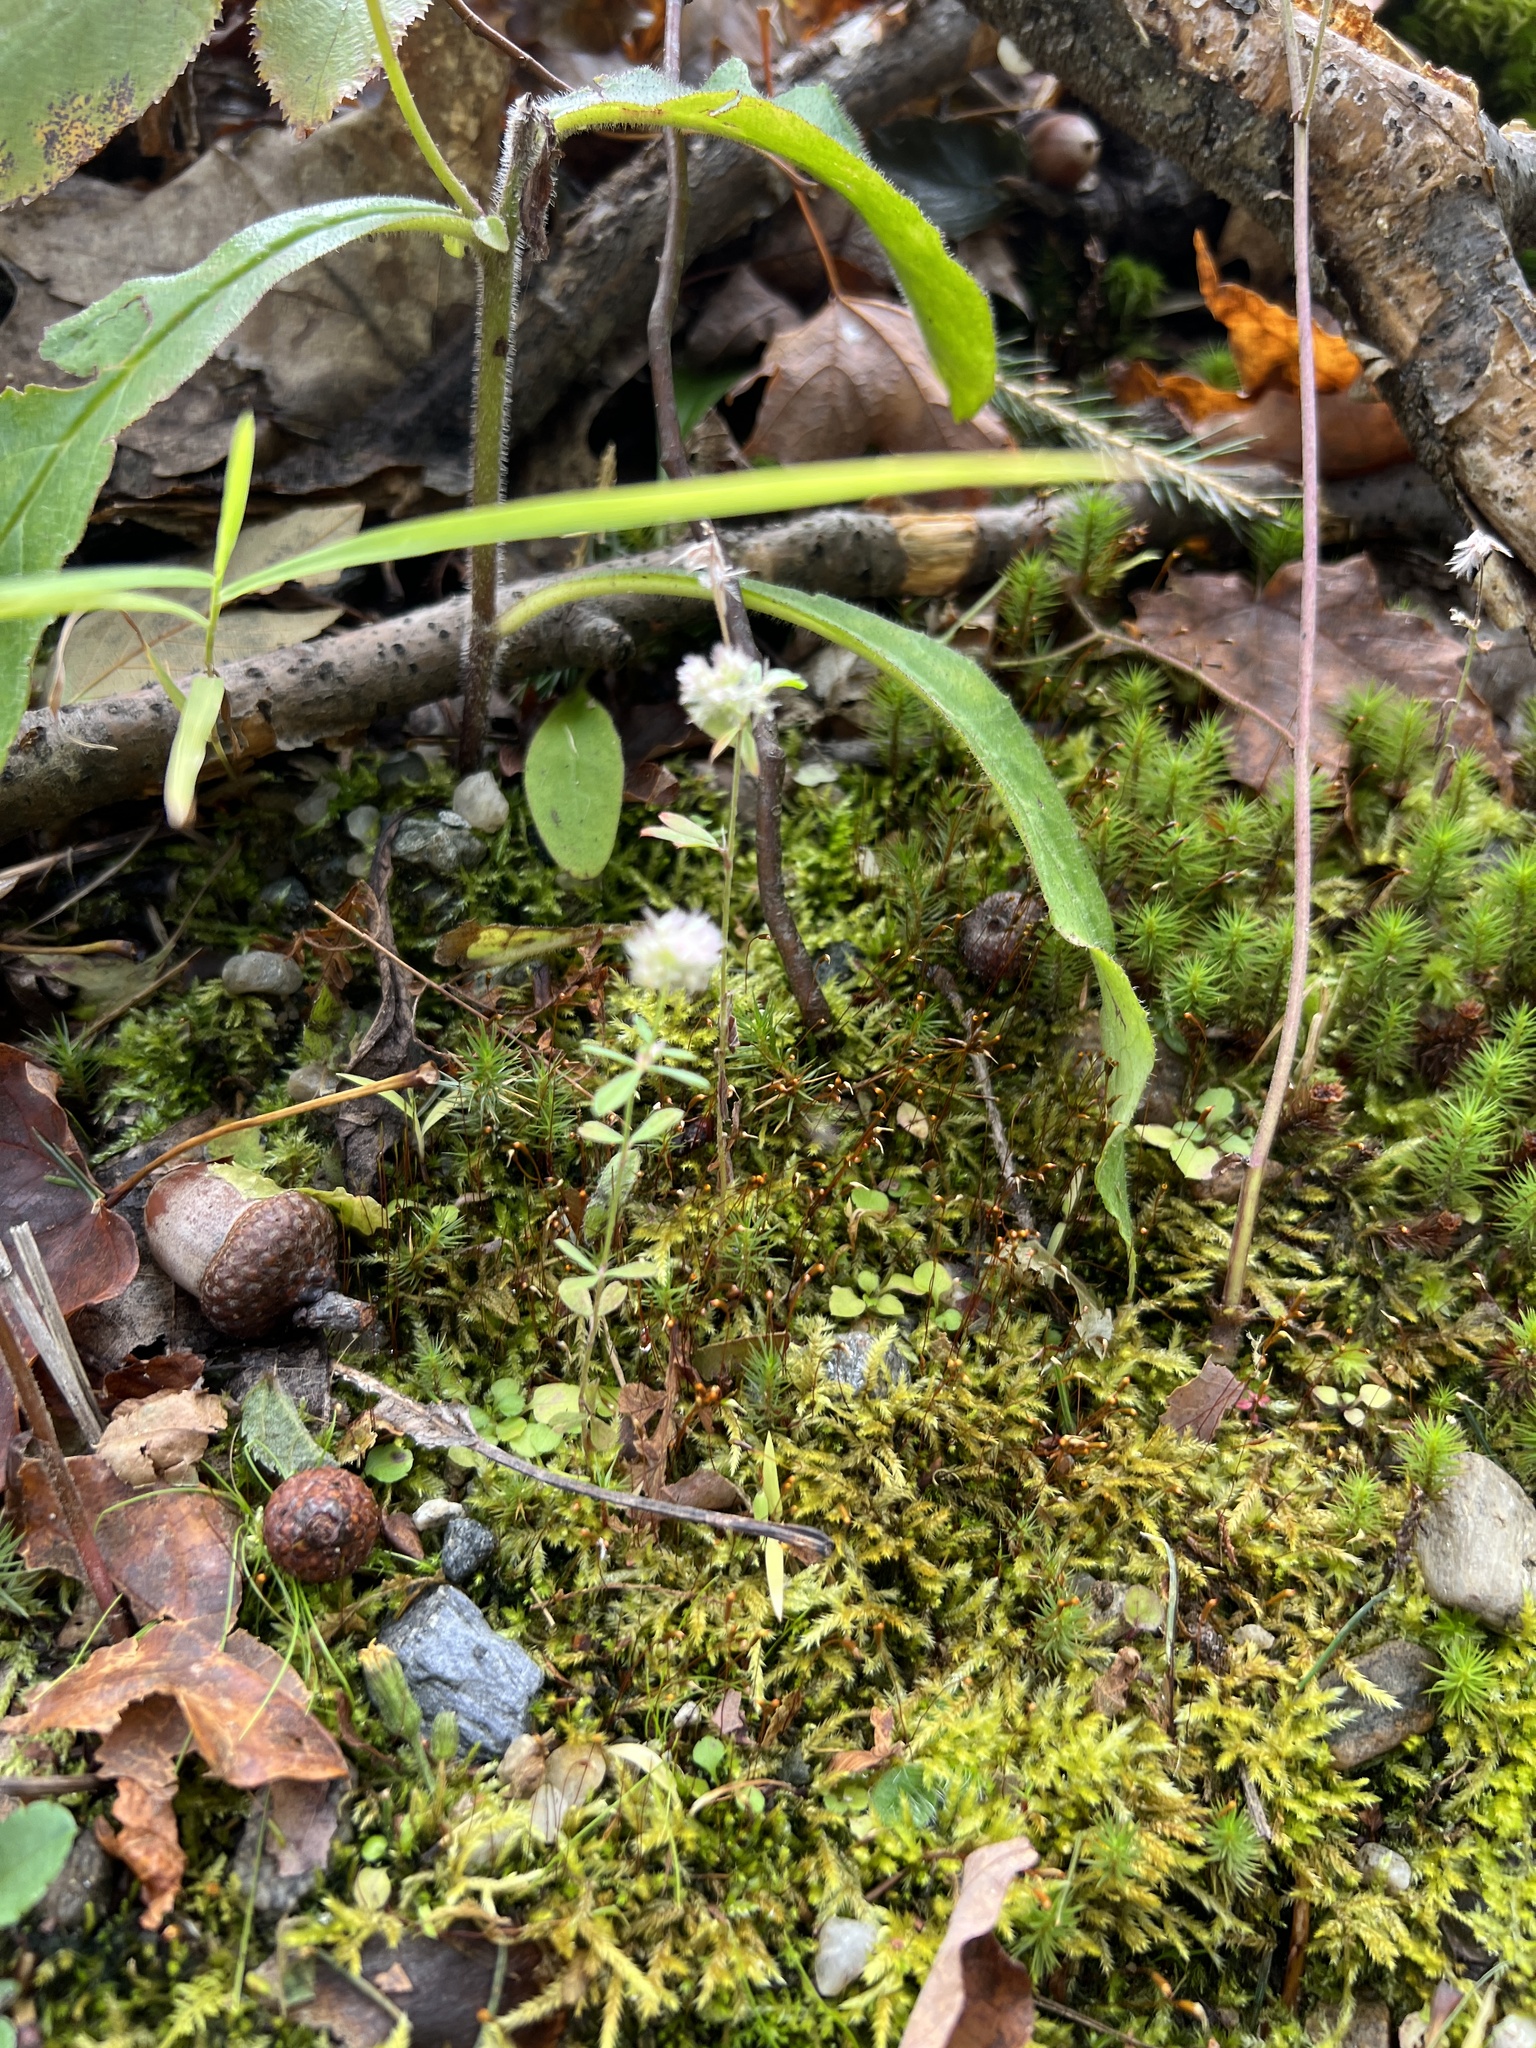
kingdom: Plantae
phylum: Tracheophyta
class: Magnoliopsida
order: Fabales
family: Fabaceae
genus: Trifolium
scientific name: Trifolium arvense
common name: Hare's-foot clover
